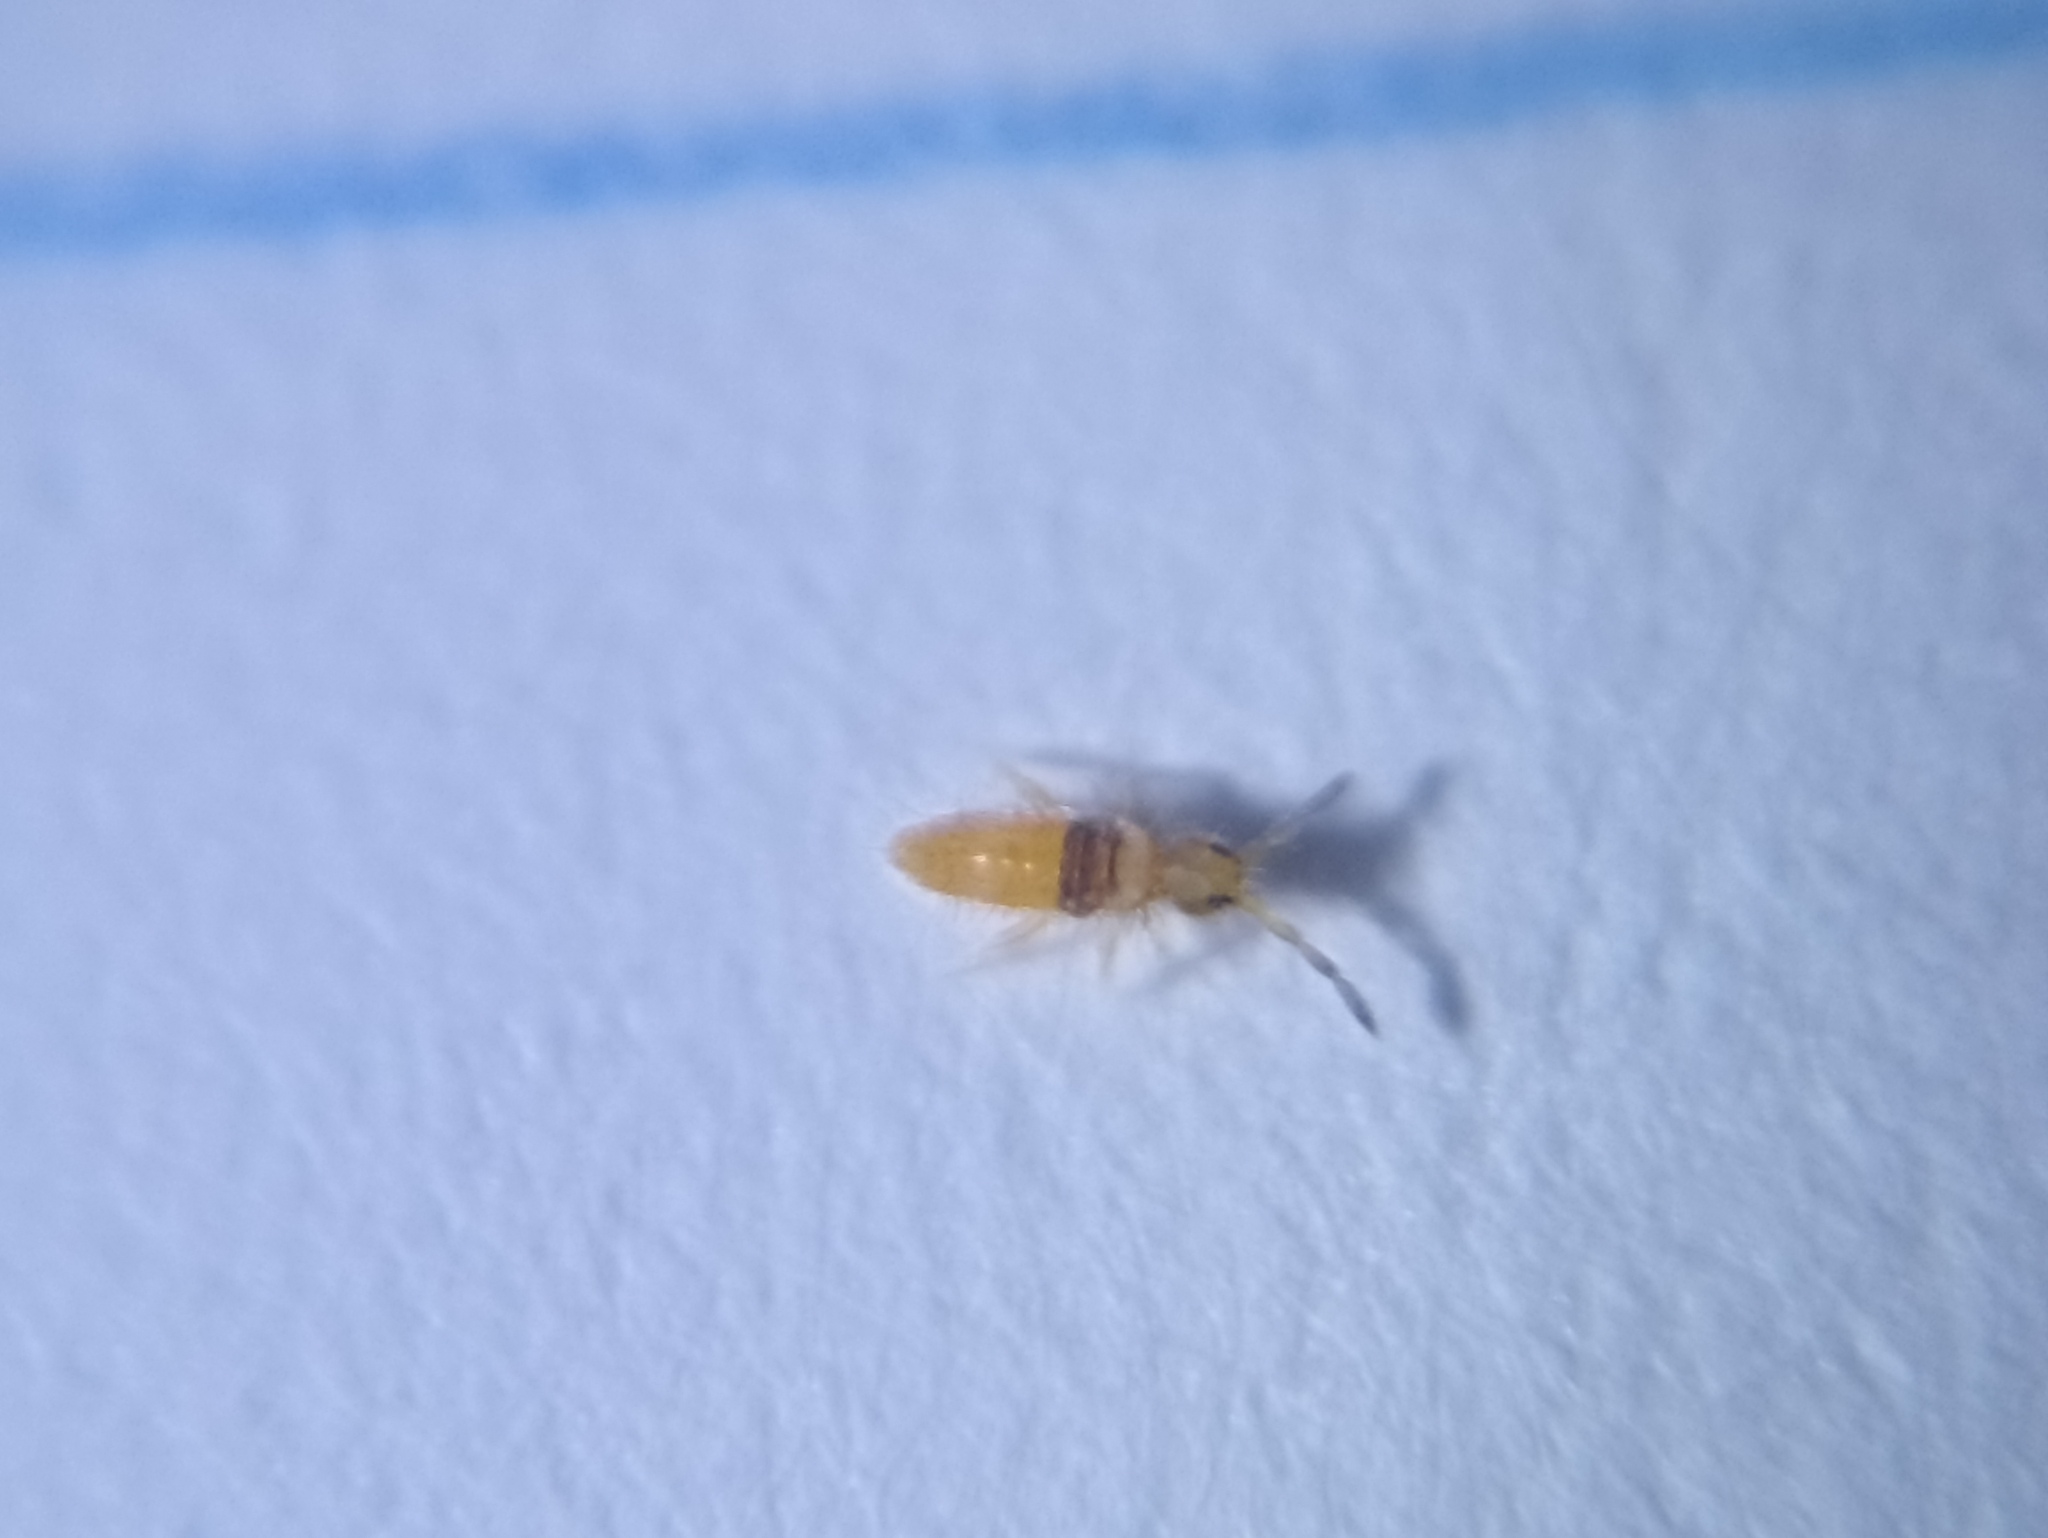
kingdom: Animalia
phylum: Arthropoda
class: Collembola
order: Entomobryomorpha
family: Entomobryidae
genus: Entomobrya
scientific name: Entomobrya nigrocincta
